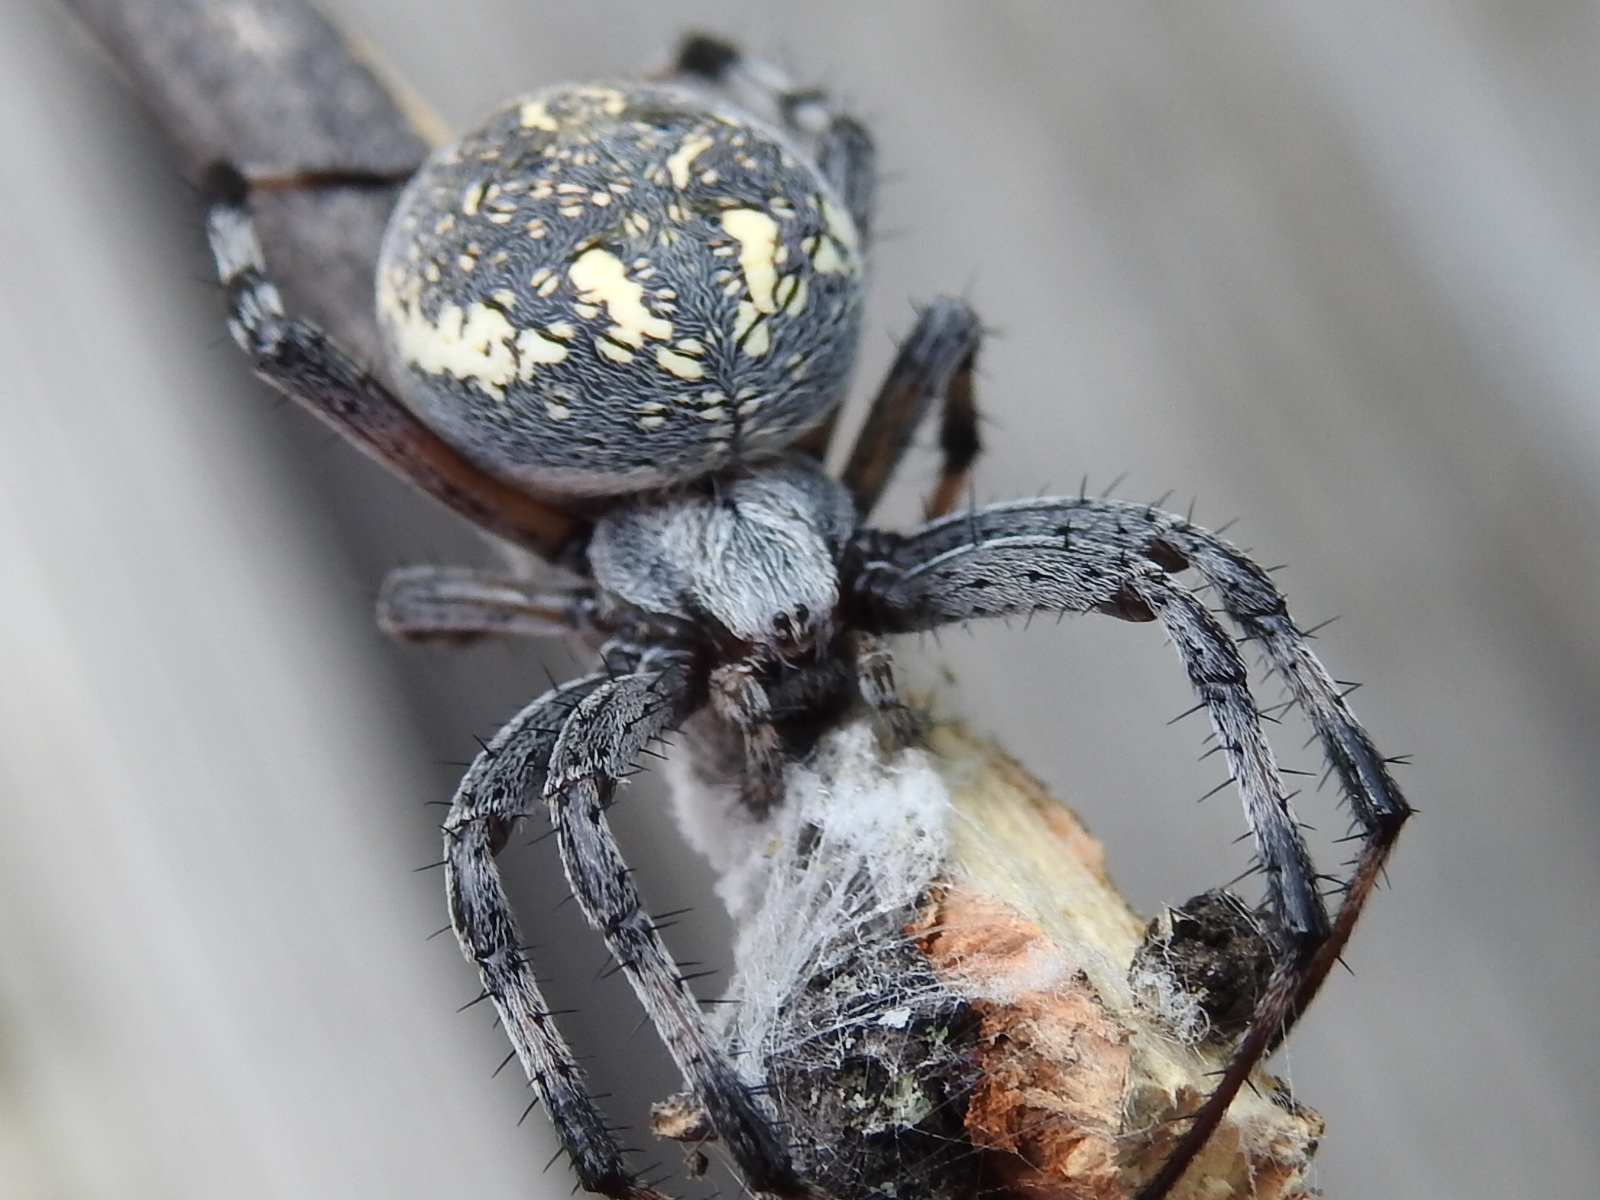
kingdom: Animalia
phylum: Arthropoda
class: Arachnida
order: Araneae
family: Araneidae
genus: Neoscona
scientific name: Neoscona oaxacensis
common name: Orb weavers
